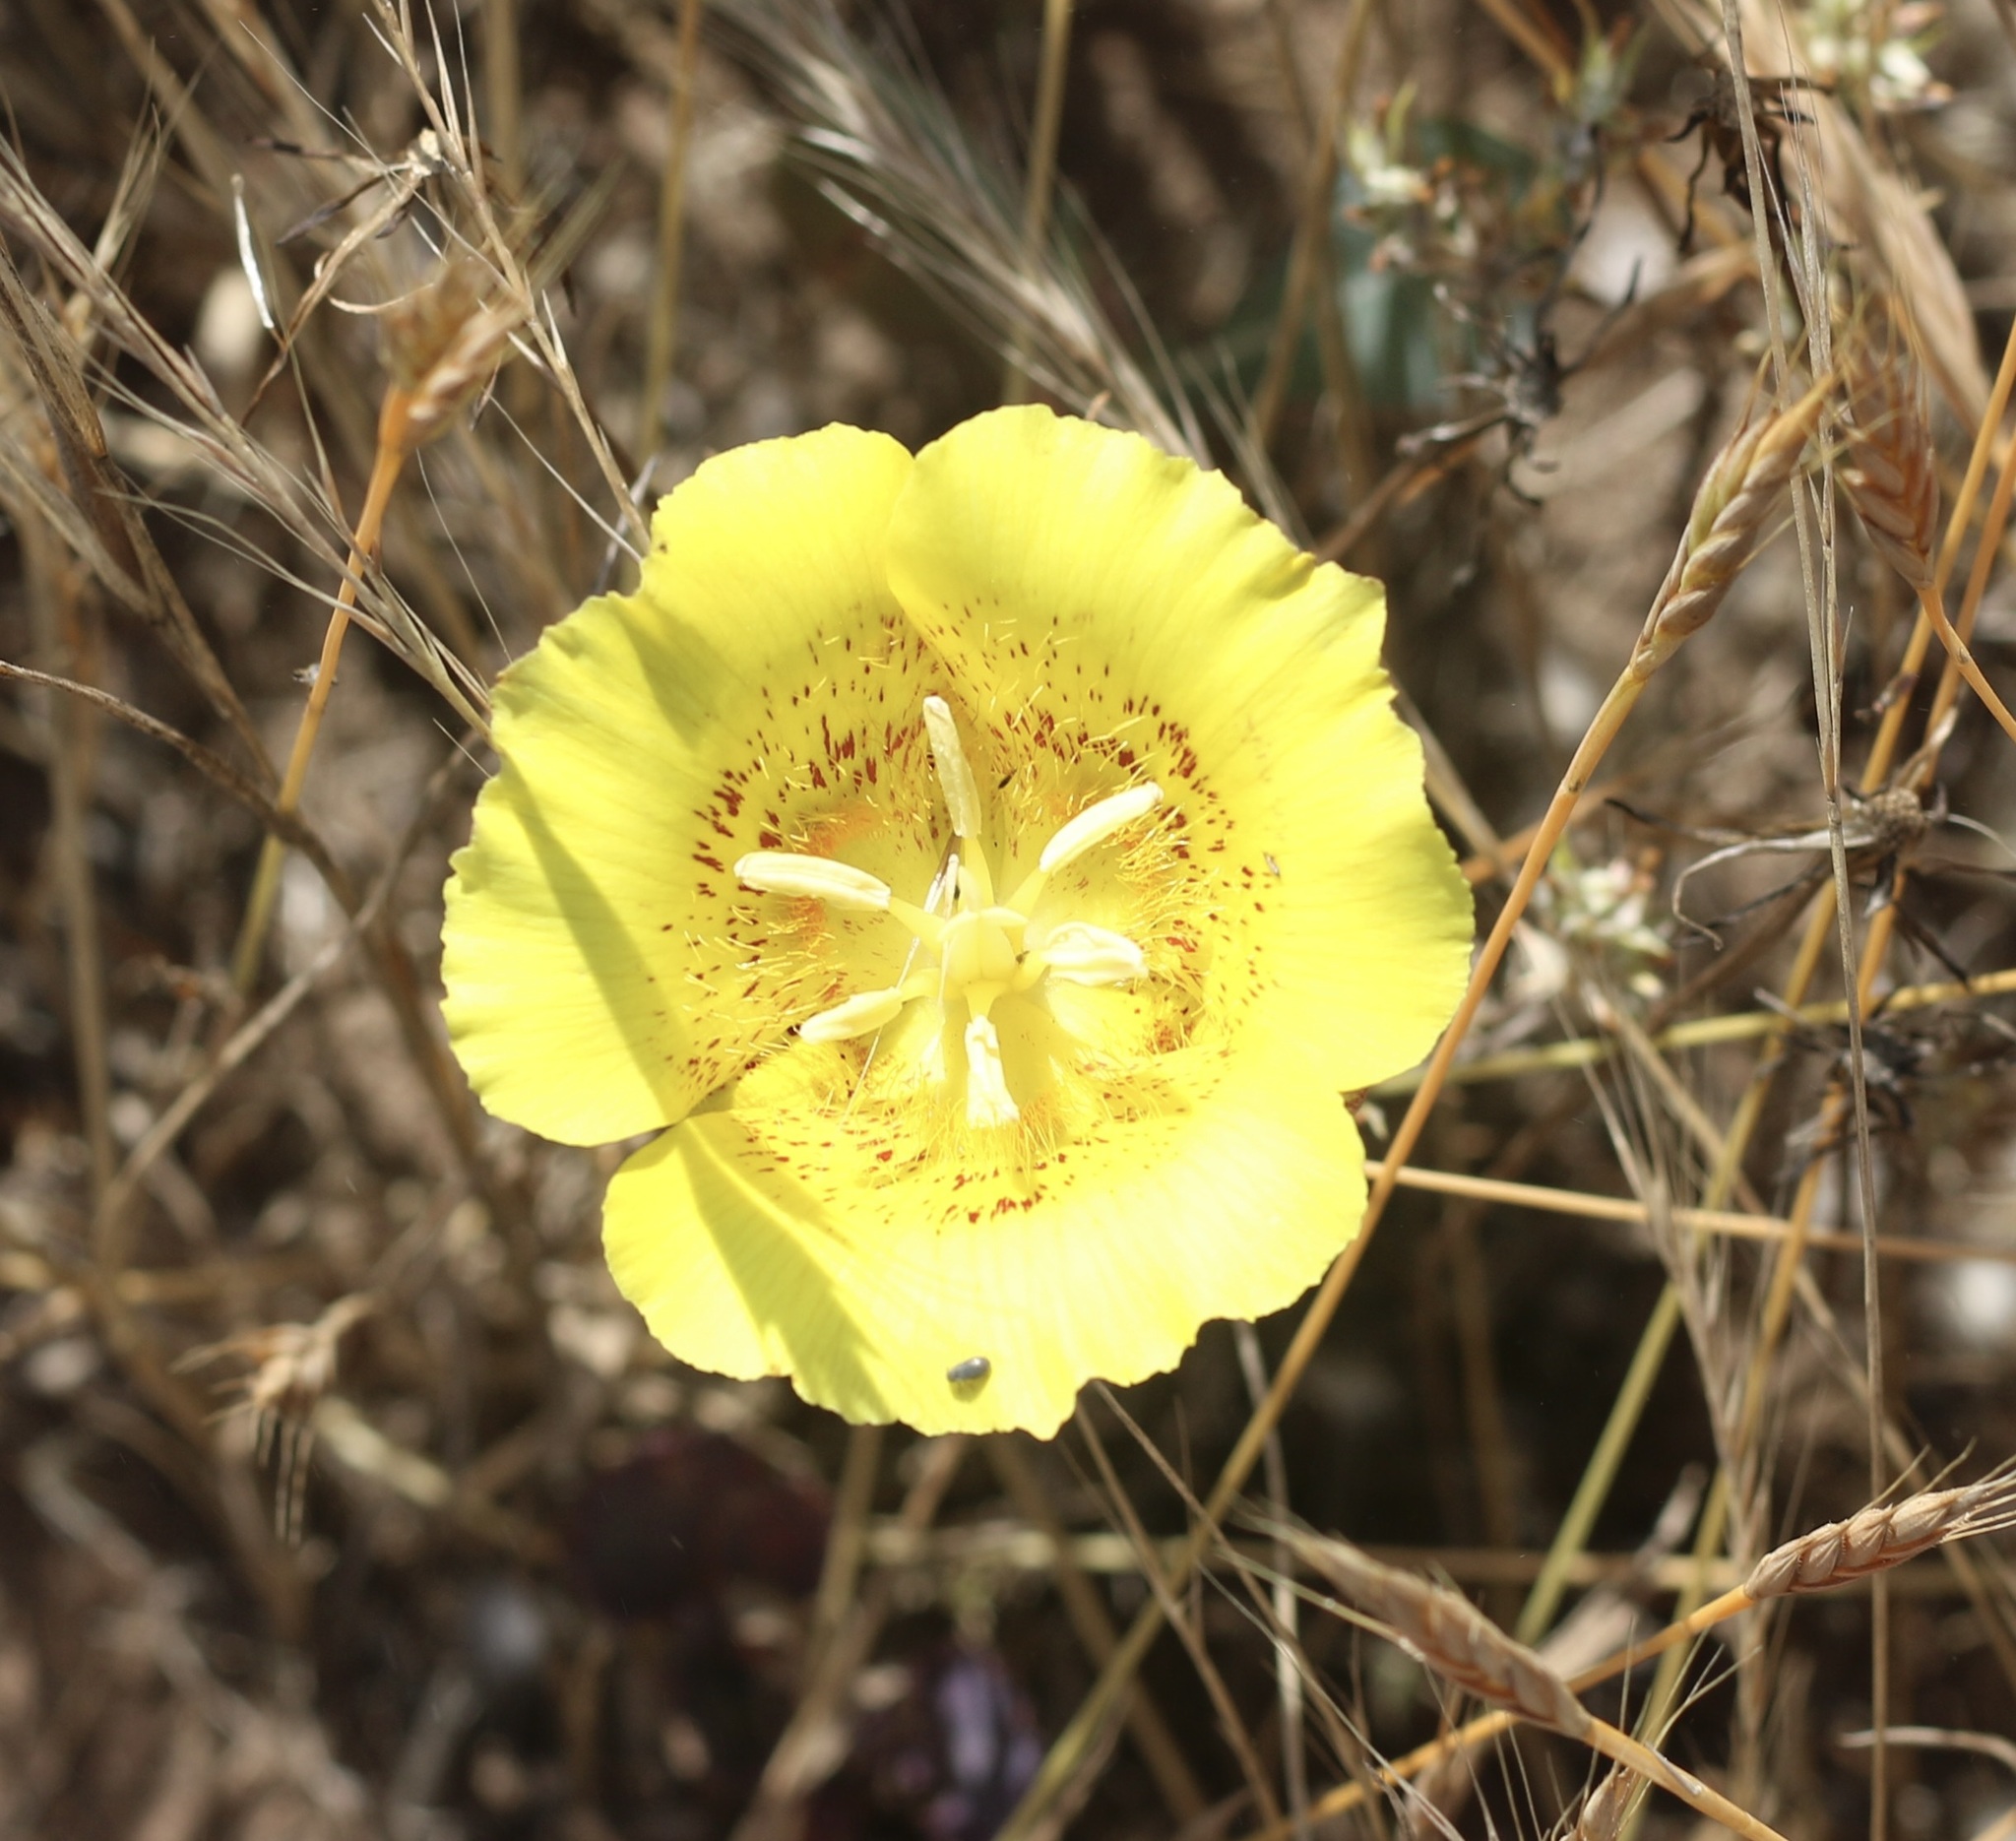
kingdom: Plantae
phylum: Tracheophyta
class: Liliopsida
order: Liliales
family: Liliaceae
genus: Calochortus
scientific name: Calochortus luteus
